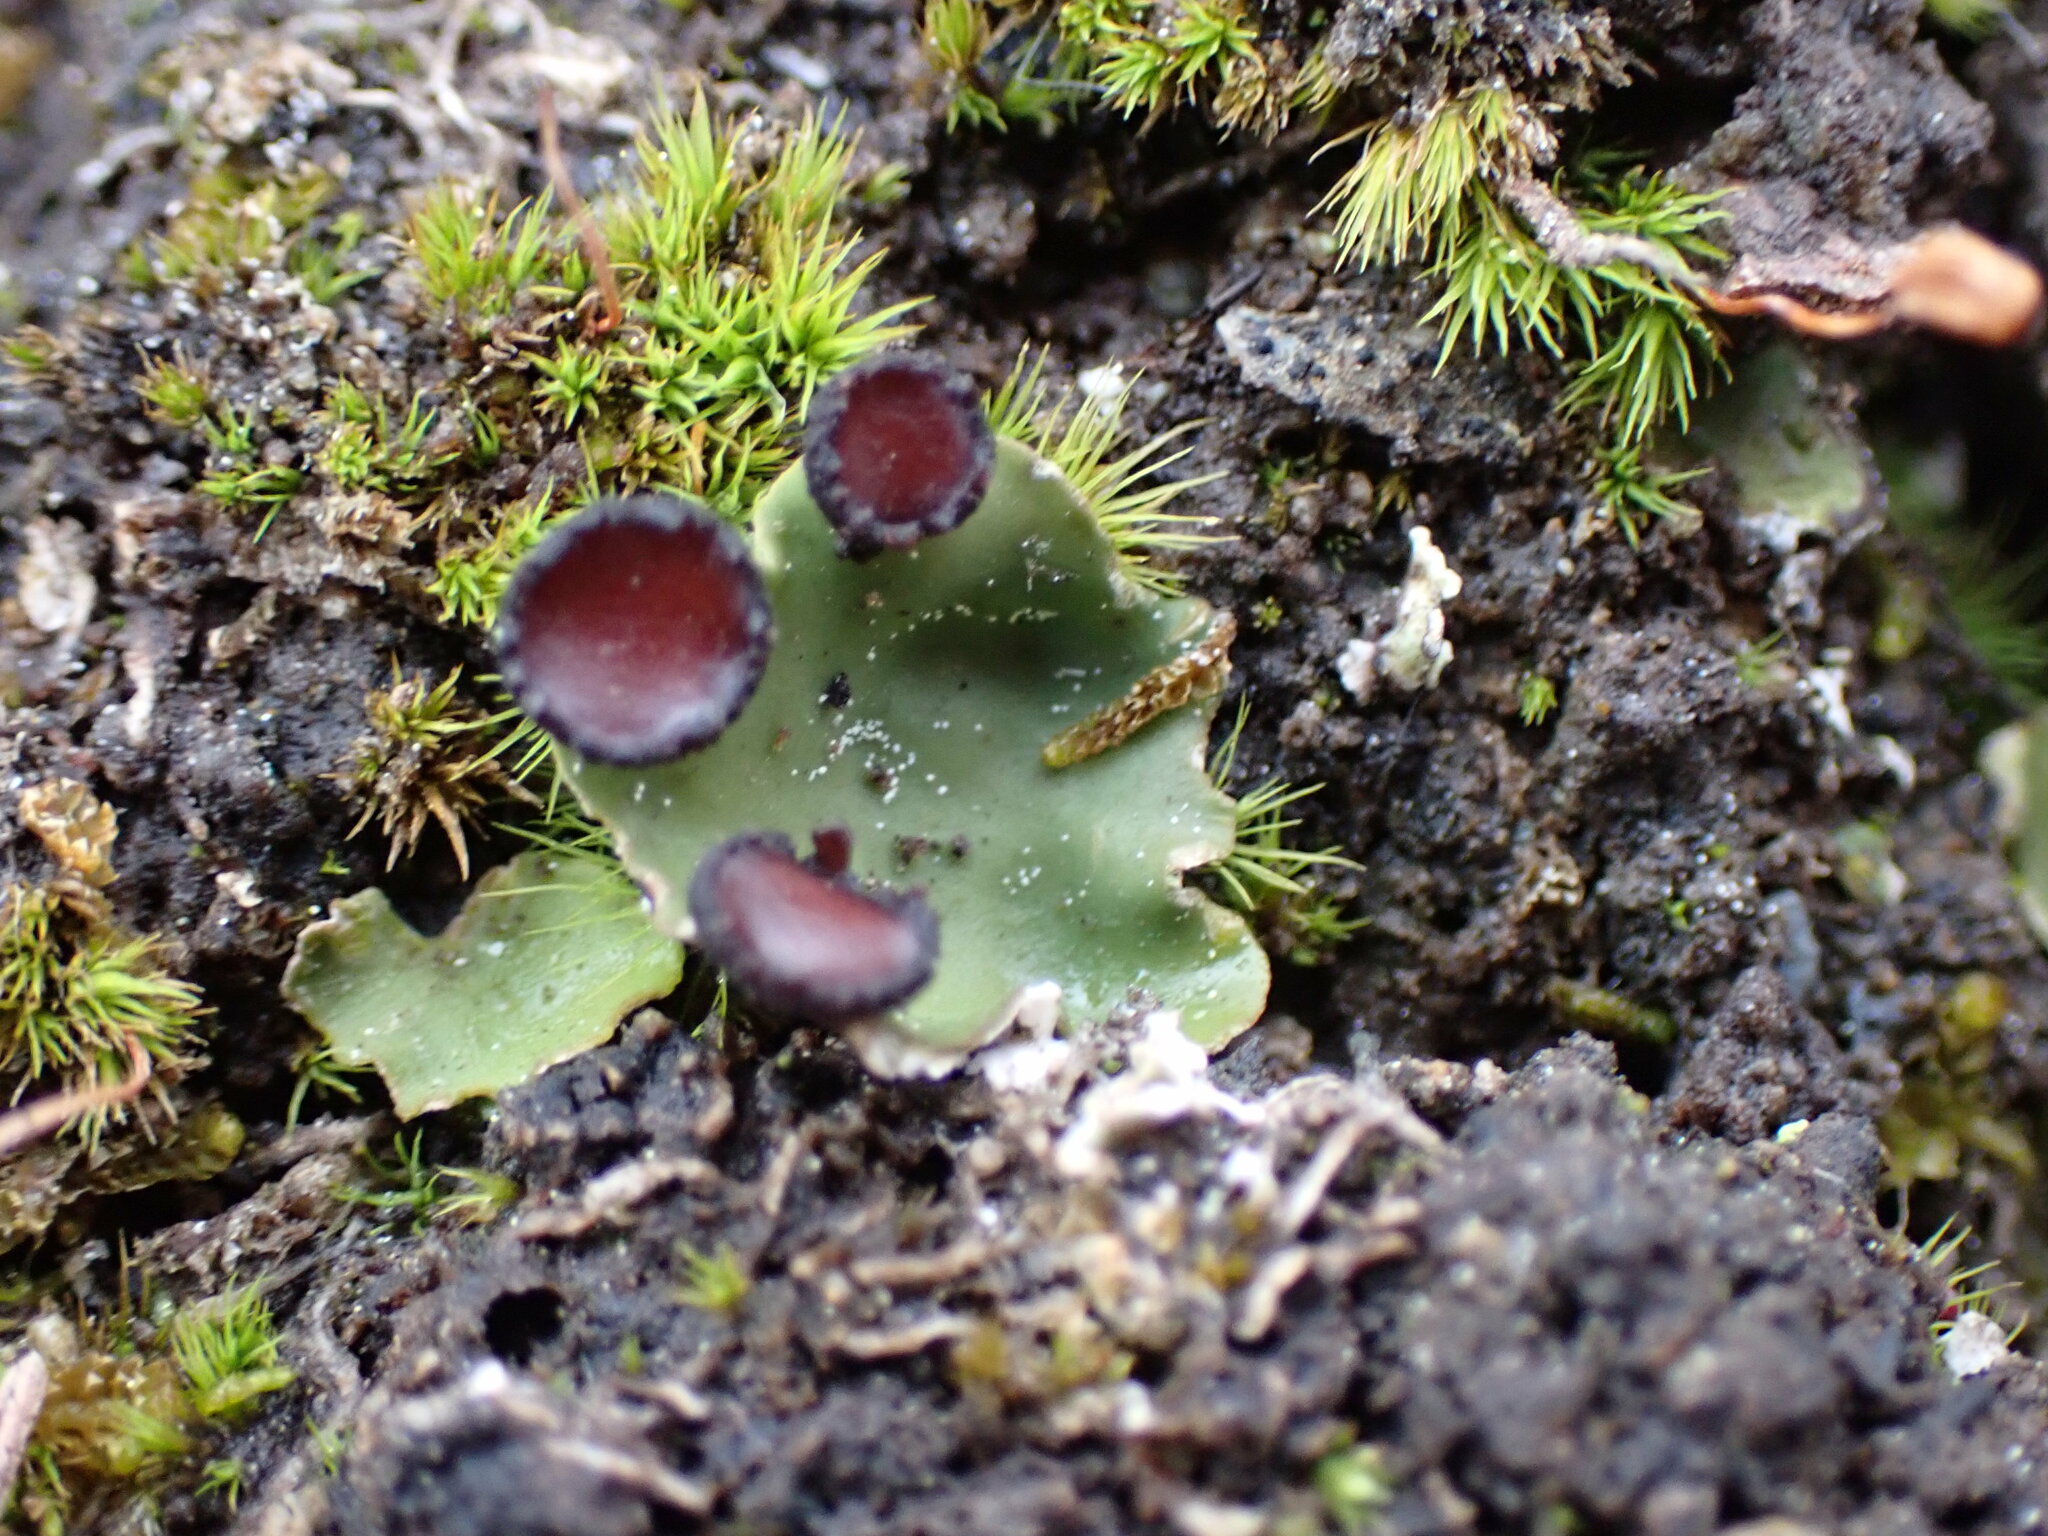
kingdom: Fungi
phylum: Ascomycota
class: Lecanoromycetes
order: Peltigerales
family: Peltigeraceae
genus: Peltigera
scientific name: Peltigera venosa
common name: Pixie gowns lichen
